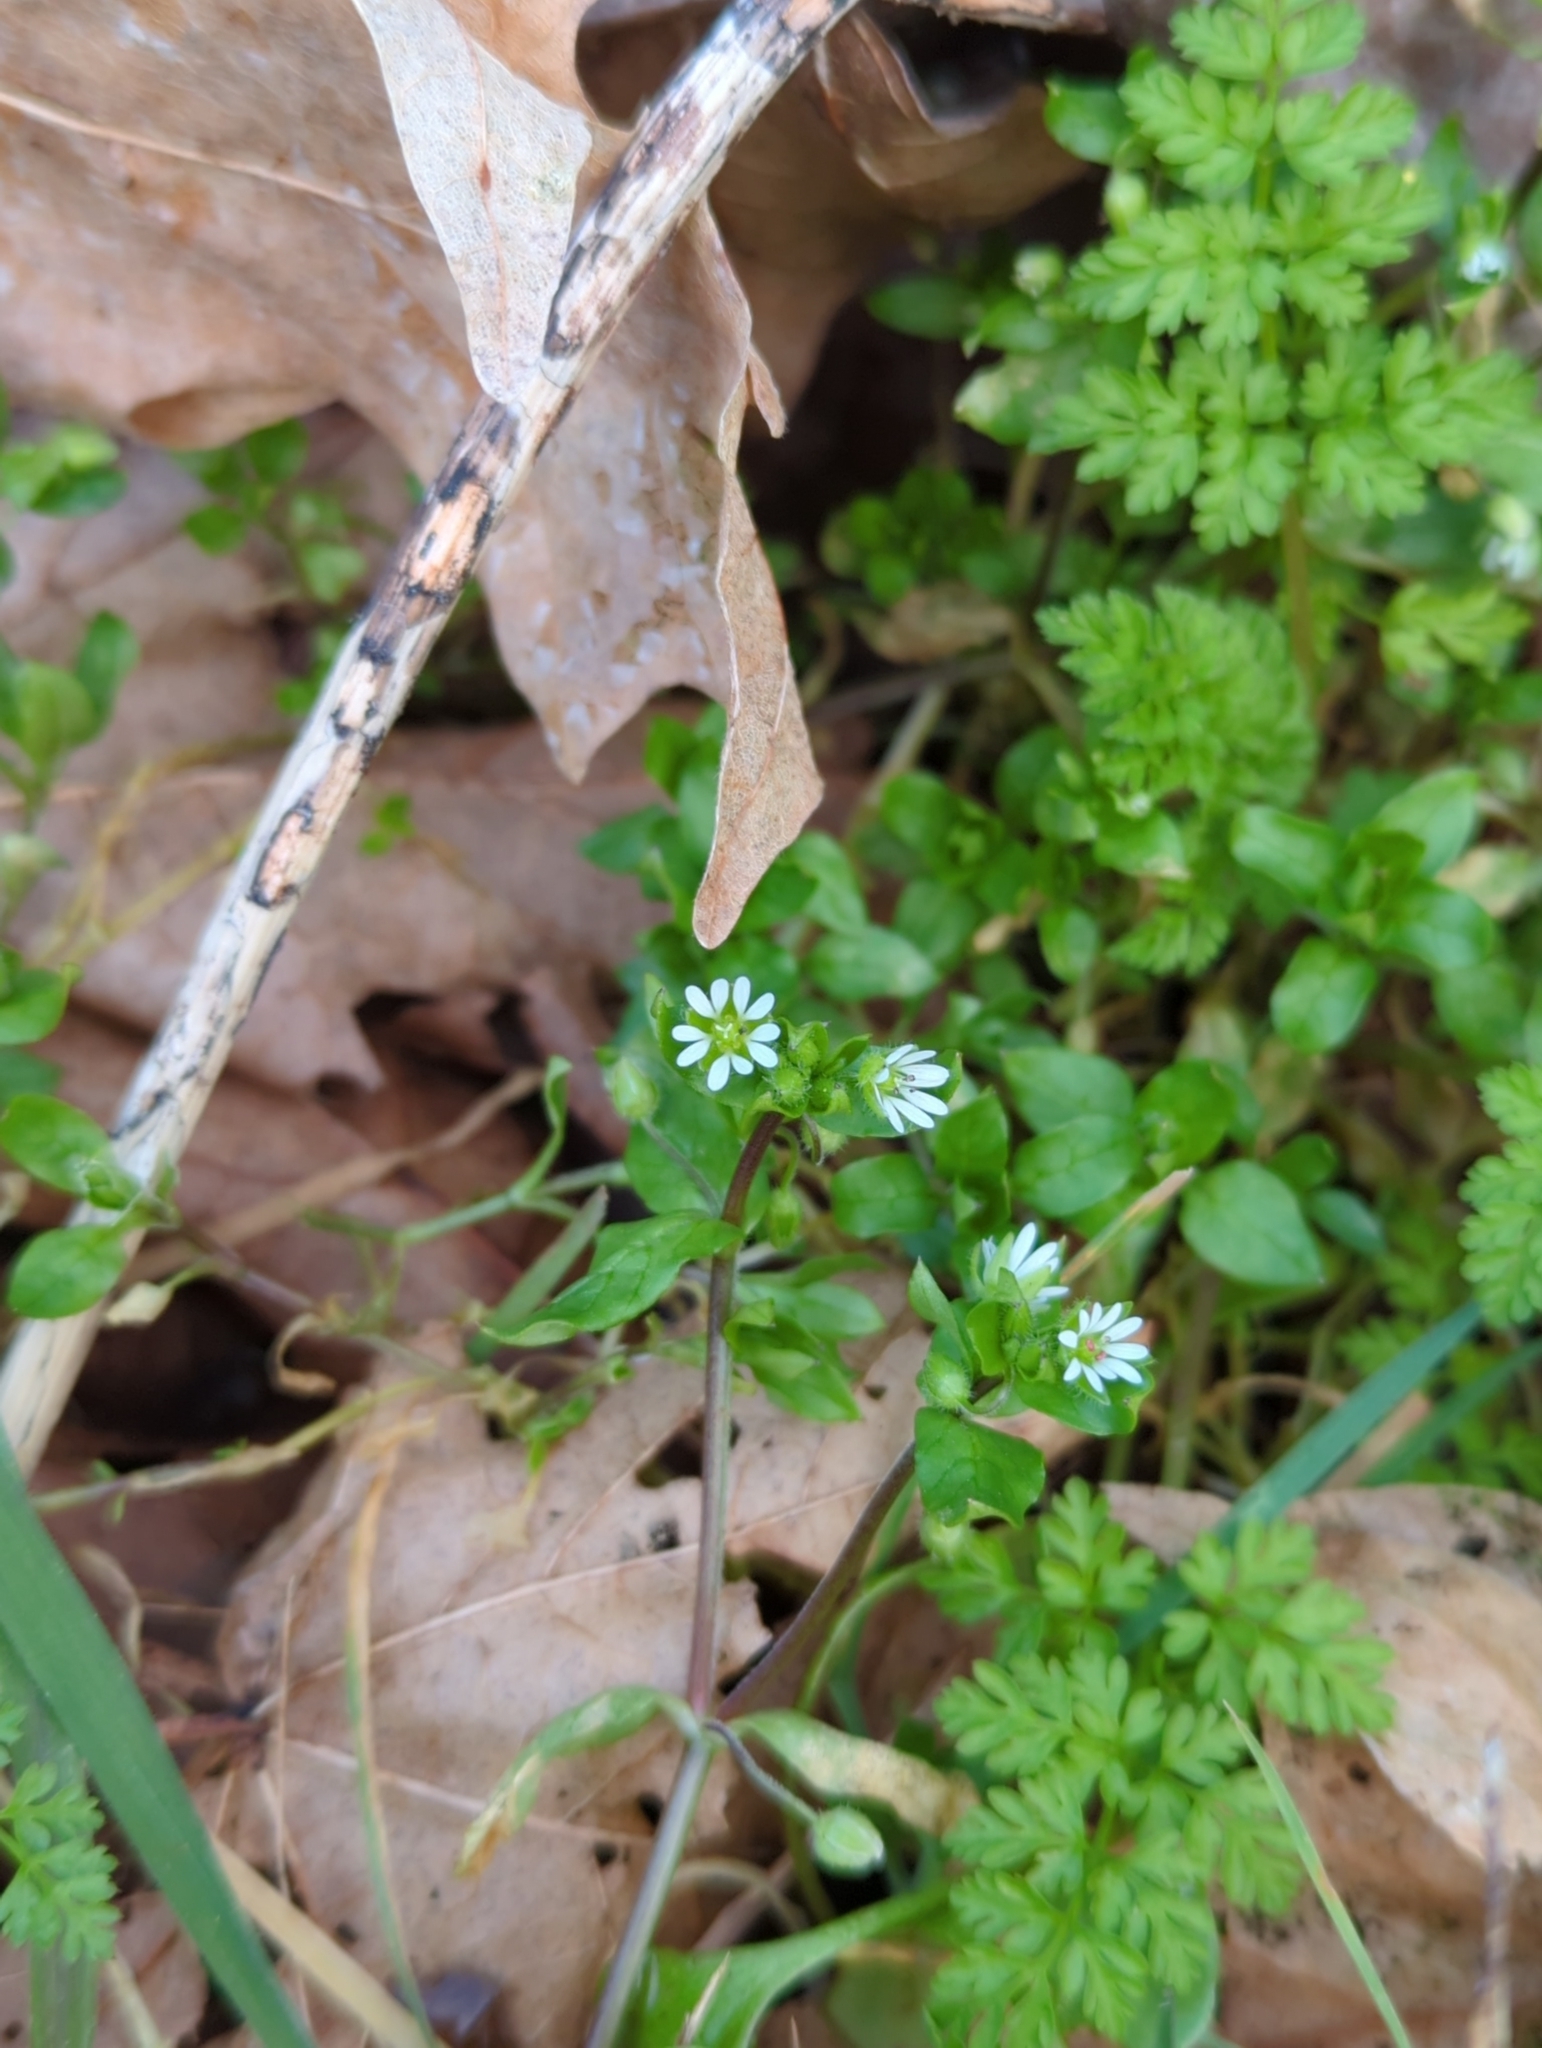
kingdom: Plantae
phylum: Tracheophyta
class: Magnoliopsida
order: Caryophyllales
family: Caryophyllaceae
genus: Stellaria
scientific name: Stellaria media
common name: Common chickweed
